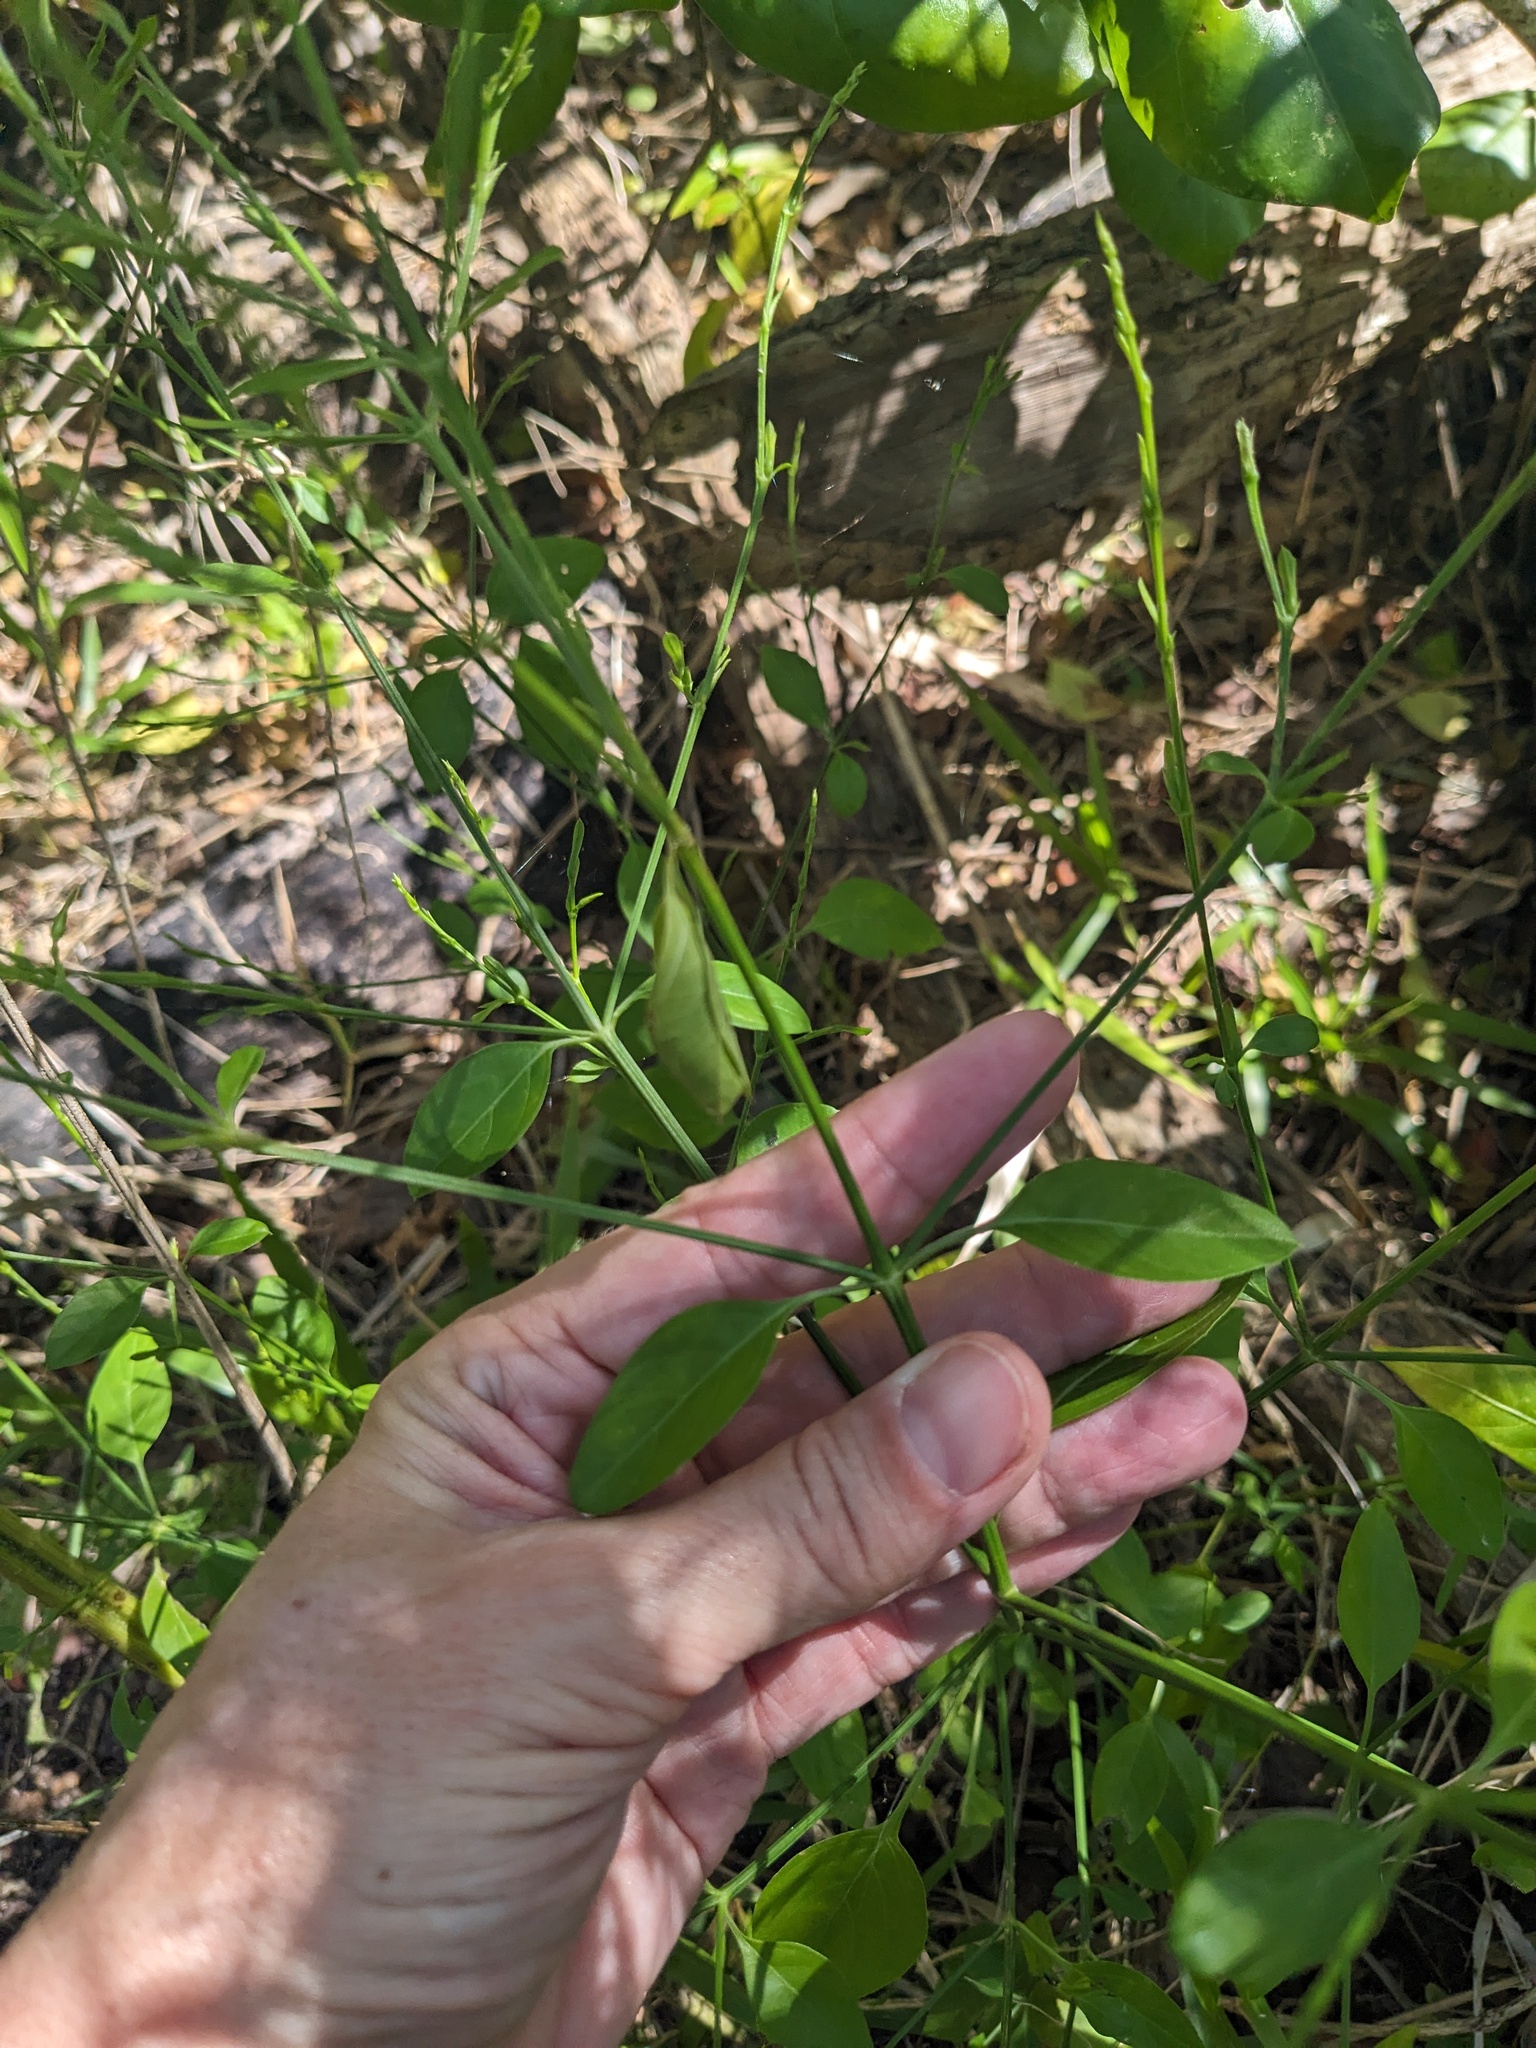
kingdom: Plantae
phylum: Tracheophyta
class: Magnoliopsida
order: Lamiales
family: Acanthaceae
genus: Dicliptera
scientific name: Dicliptera sexangularis
